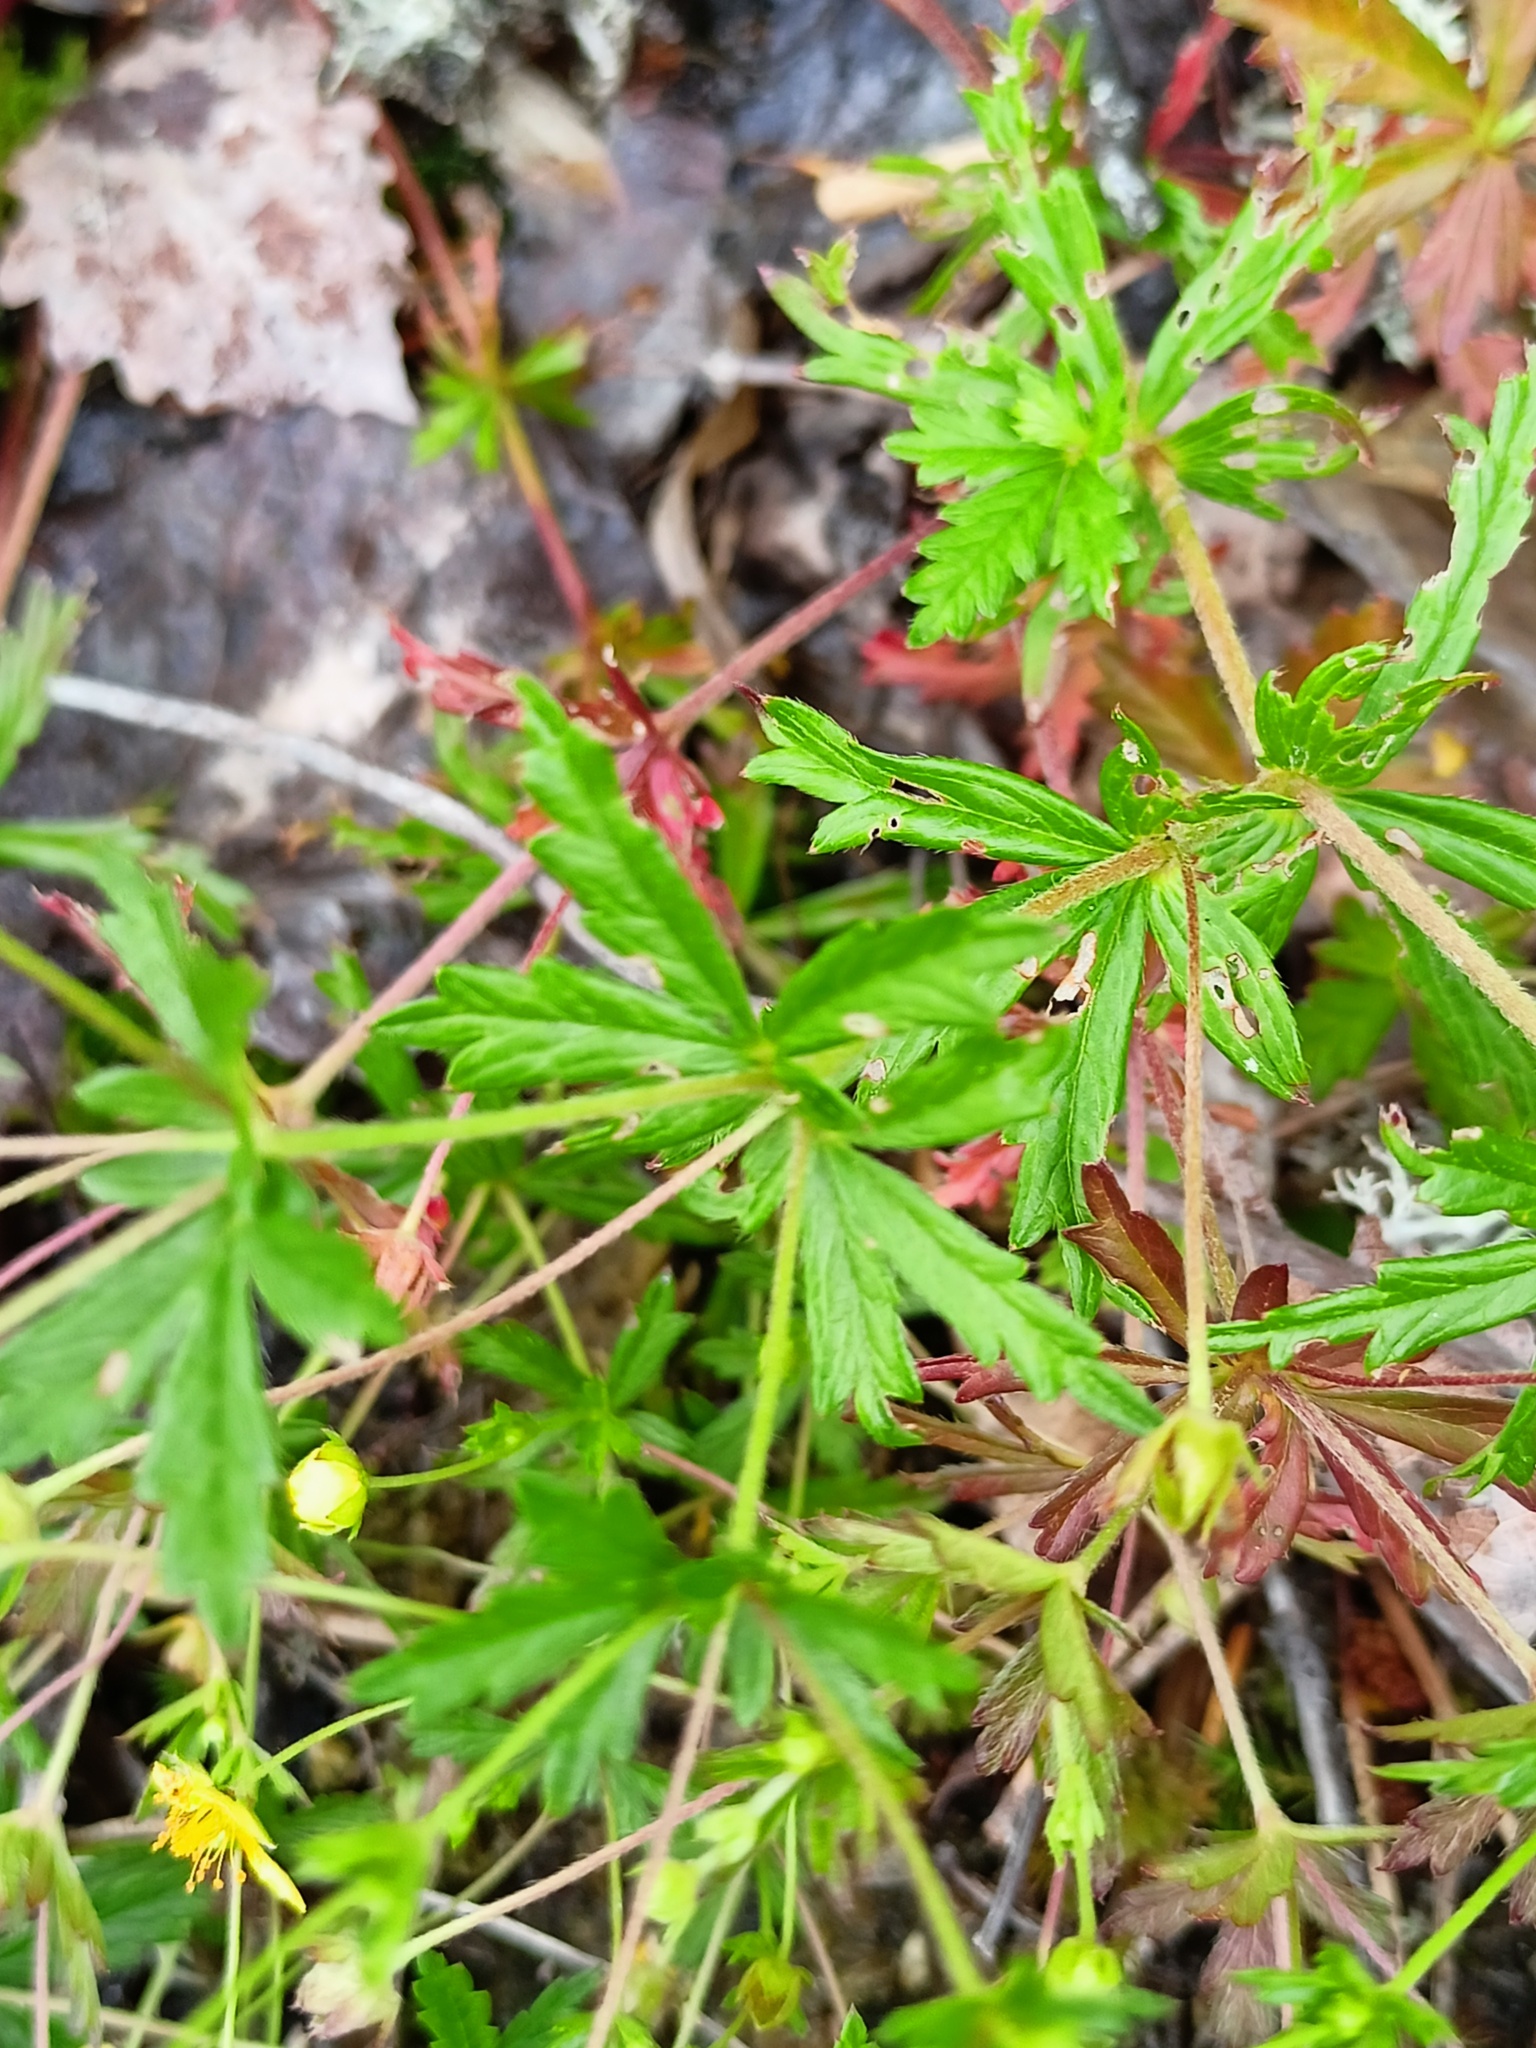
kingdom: Plantae
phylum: Tracheophyta
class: Magnoliopsida
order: Rosales
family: Rosaceae
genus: Potentilla
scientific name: Potentilla erecta
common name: Tormentil
